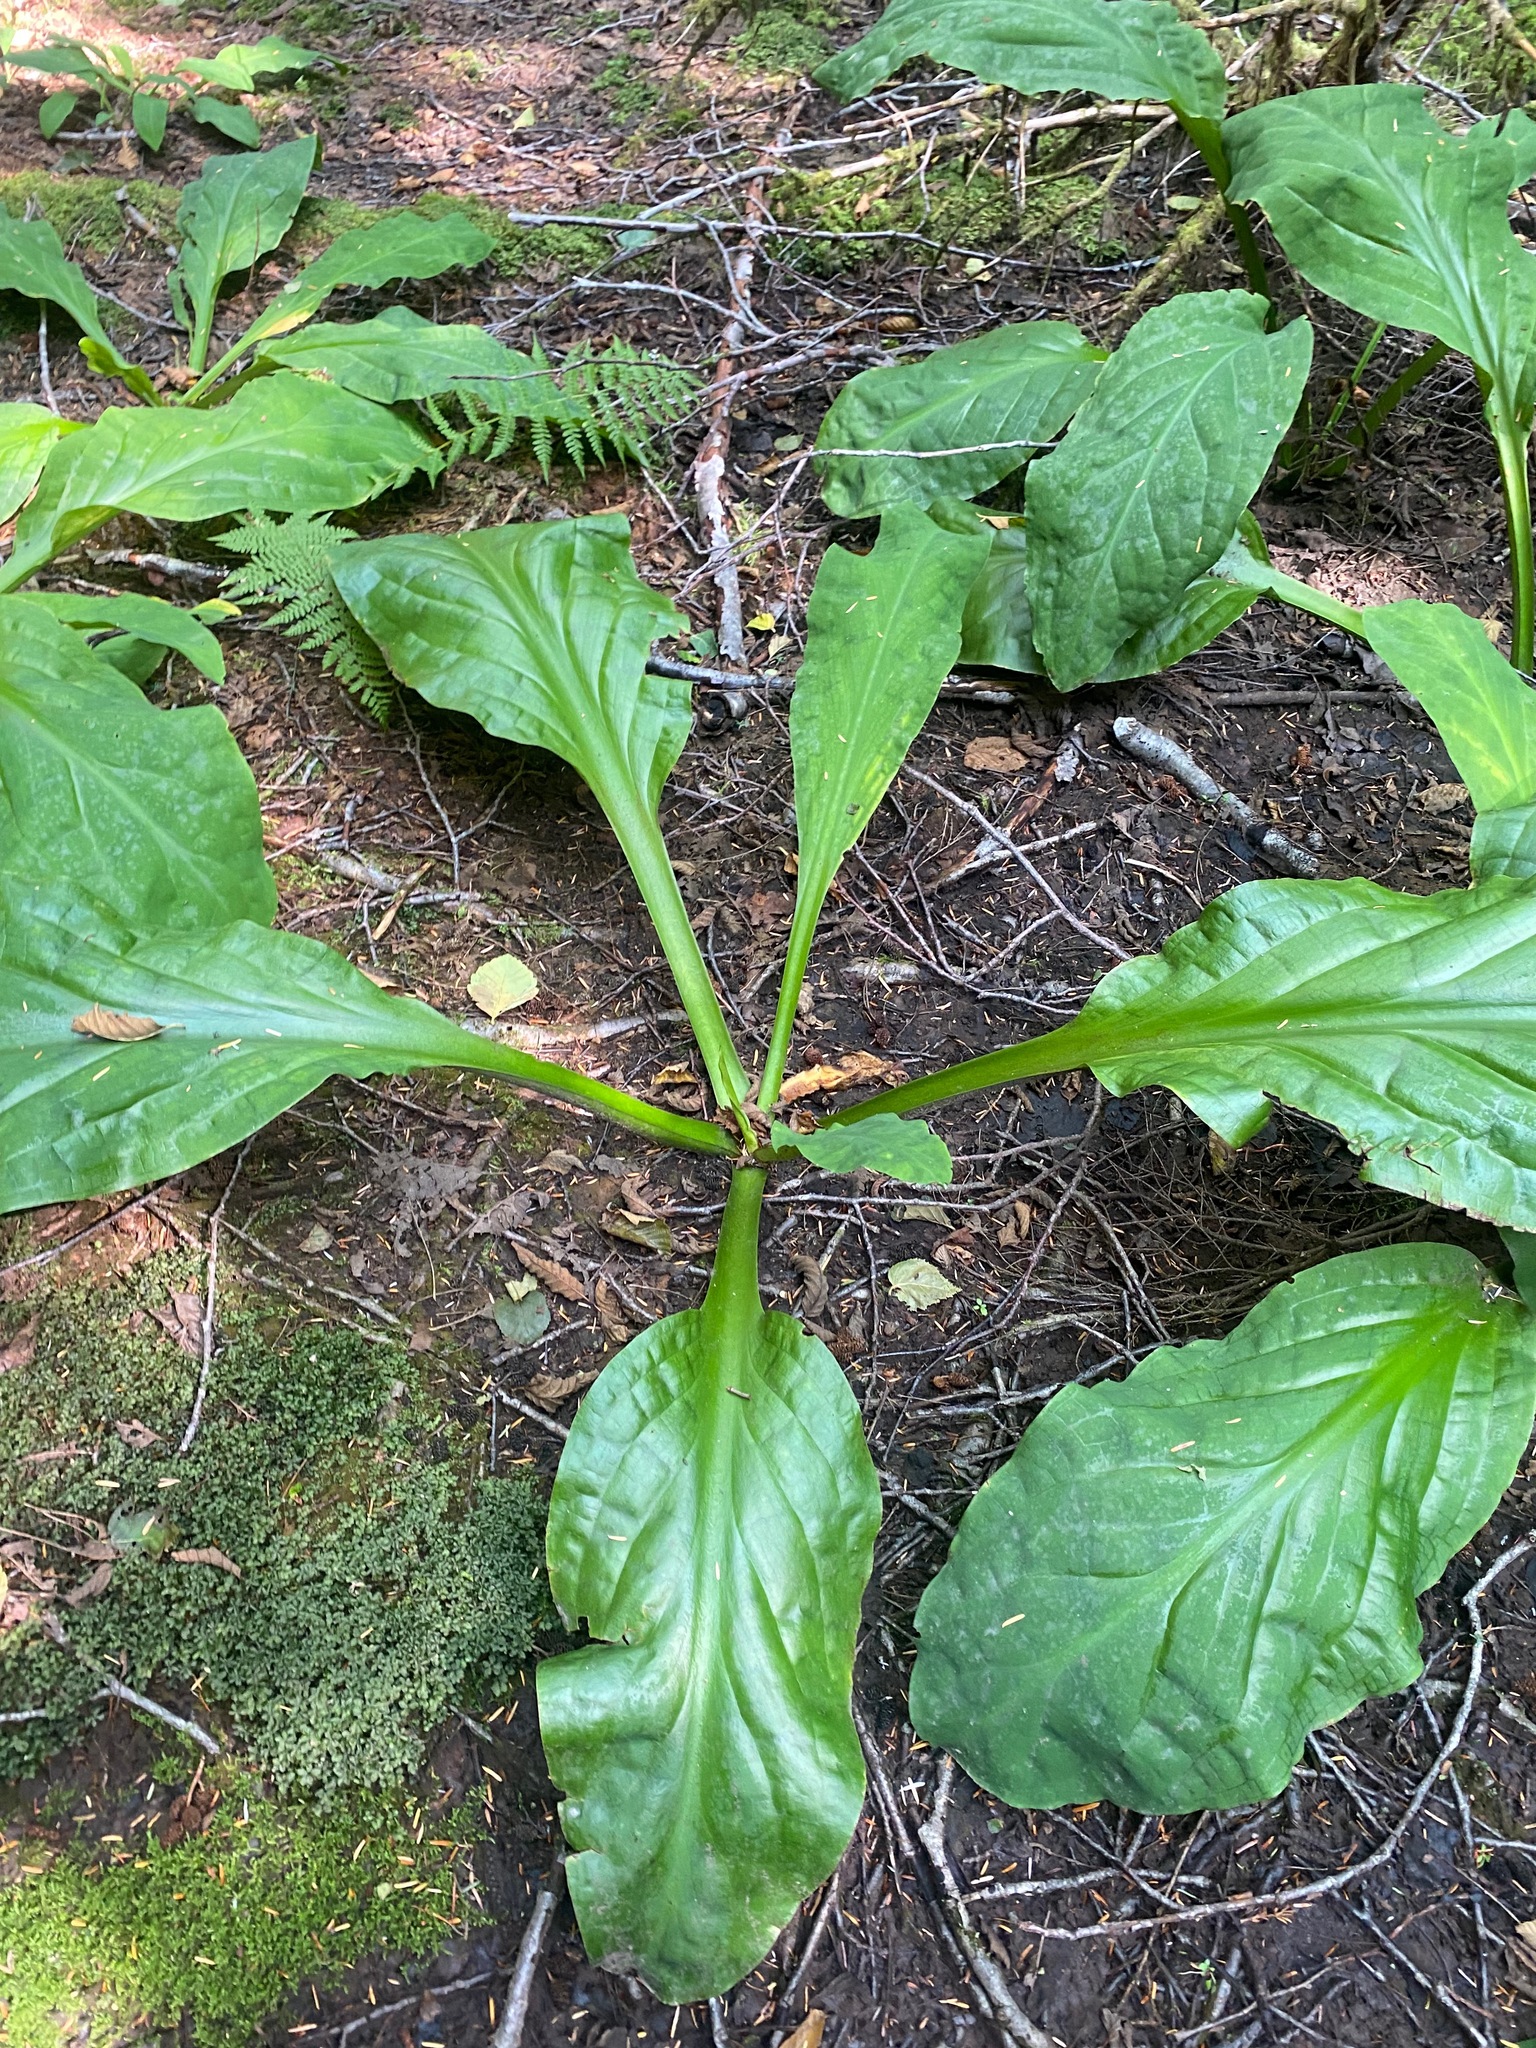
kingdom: Plantae
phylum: Tracheophyta
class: Liliopsida
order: Alismatales
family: Araceae
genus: Lysichiton
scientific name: Lysichiton americanus
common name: American skunk cabbage
